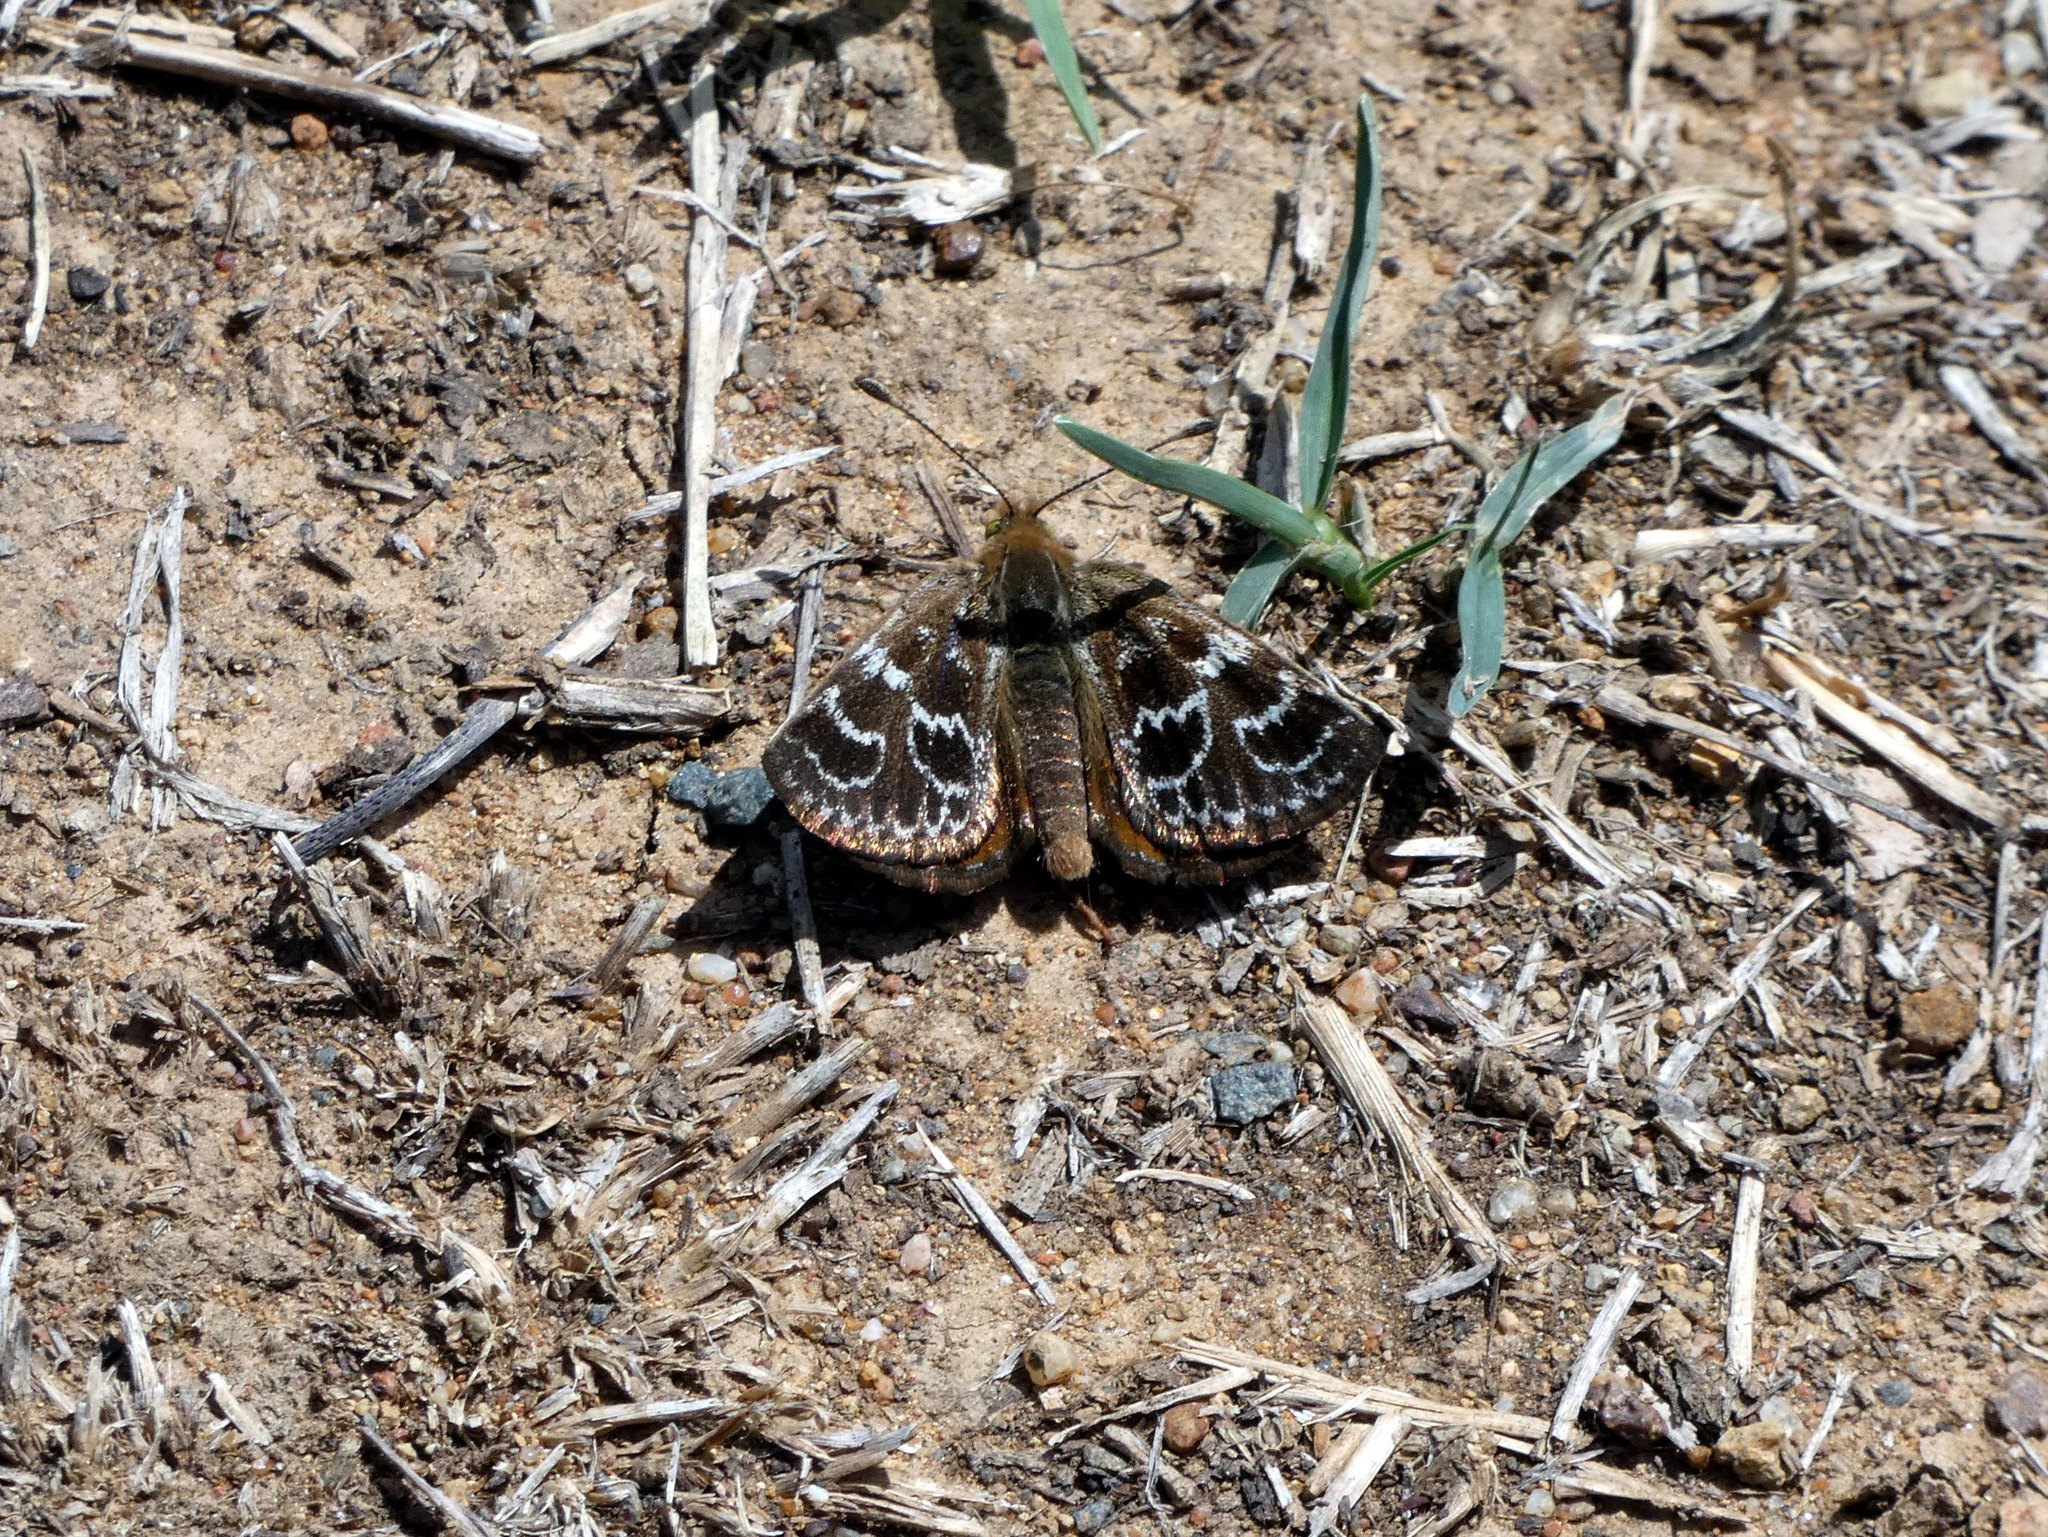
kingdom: Animalia
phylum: Arthropoda
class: Insecta
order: Lepidoptera
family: Castniidae
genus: Synemon
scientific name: Synemon plana
